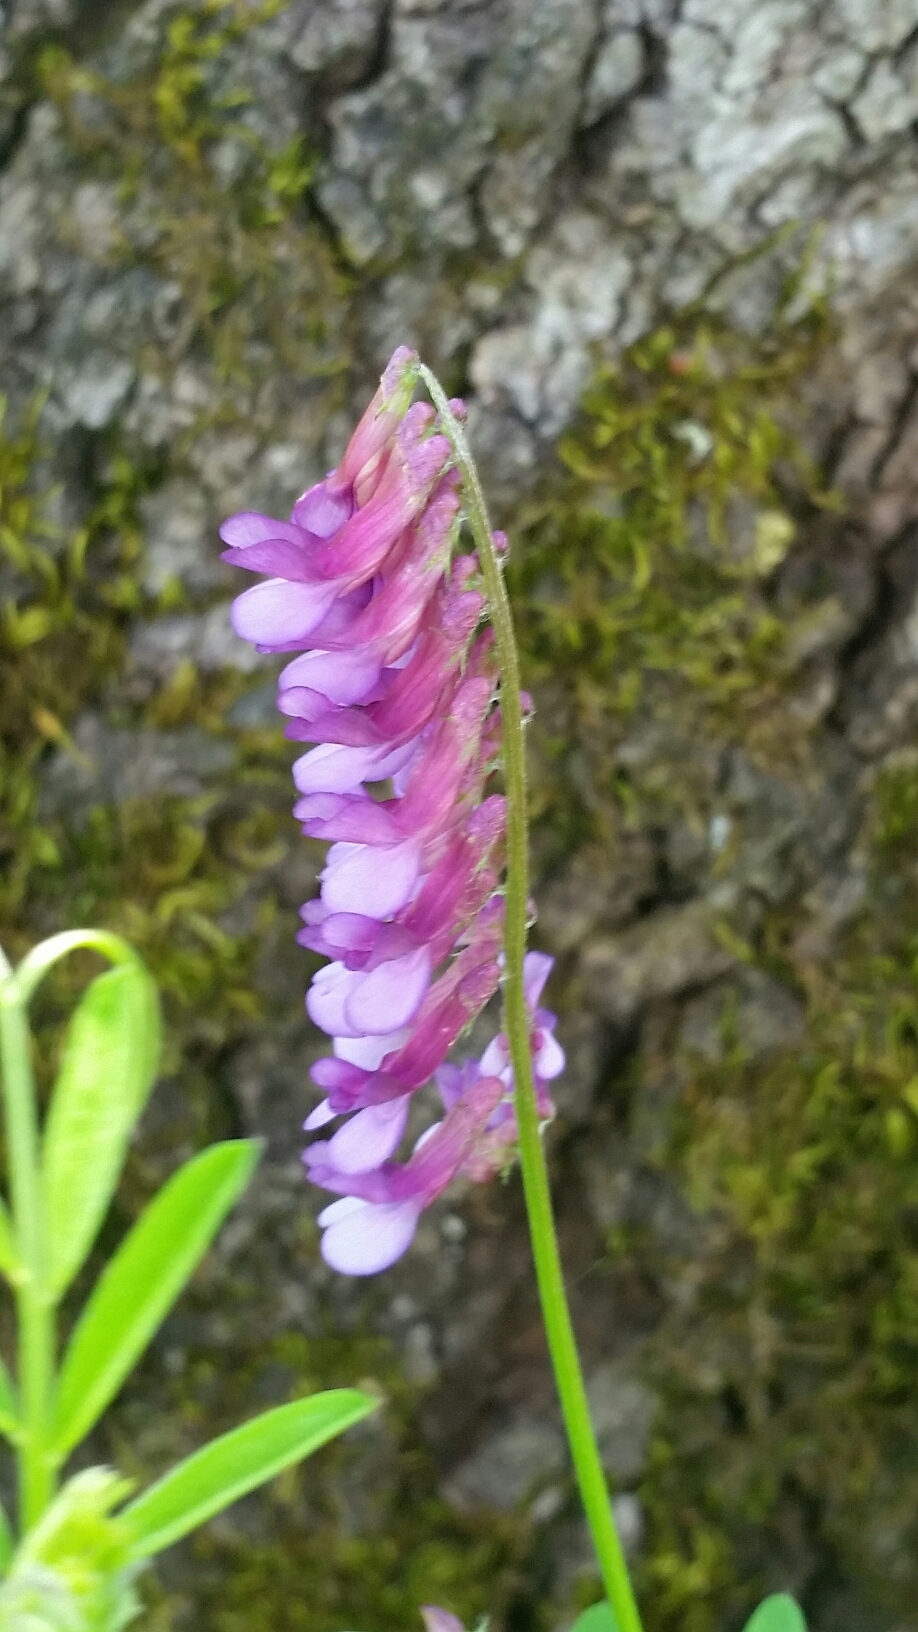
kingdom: Plantae
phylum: Tracheophyta
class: Magnoliopsida
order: Fabales
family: Fabaceae
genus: Vicia
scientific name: Vicia villosa
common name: Fodder vetch
